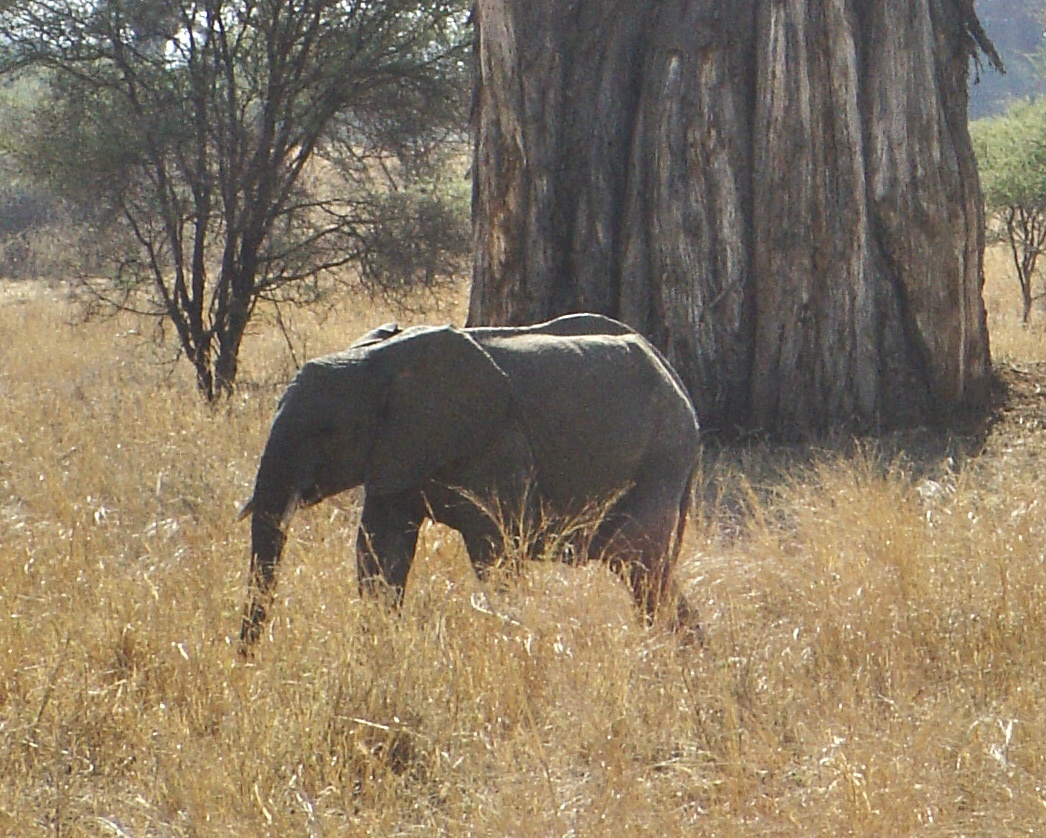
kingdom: Animalia
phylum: Chordata
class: Mammalia
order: Proboscidea
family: Elephantidae
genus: Loxodonta
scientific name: Loxodonta africana
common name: African elephant
